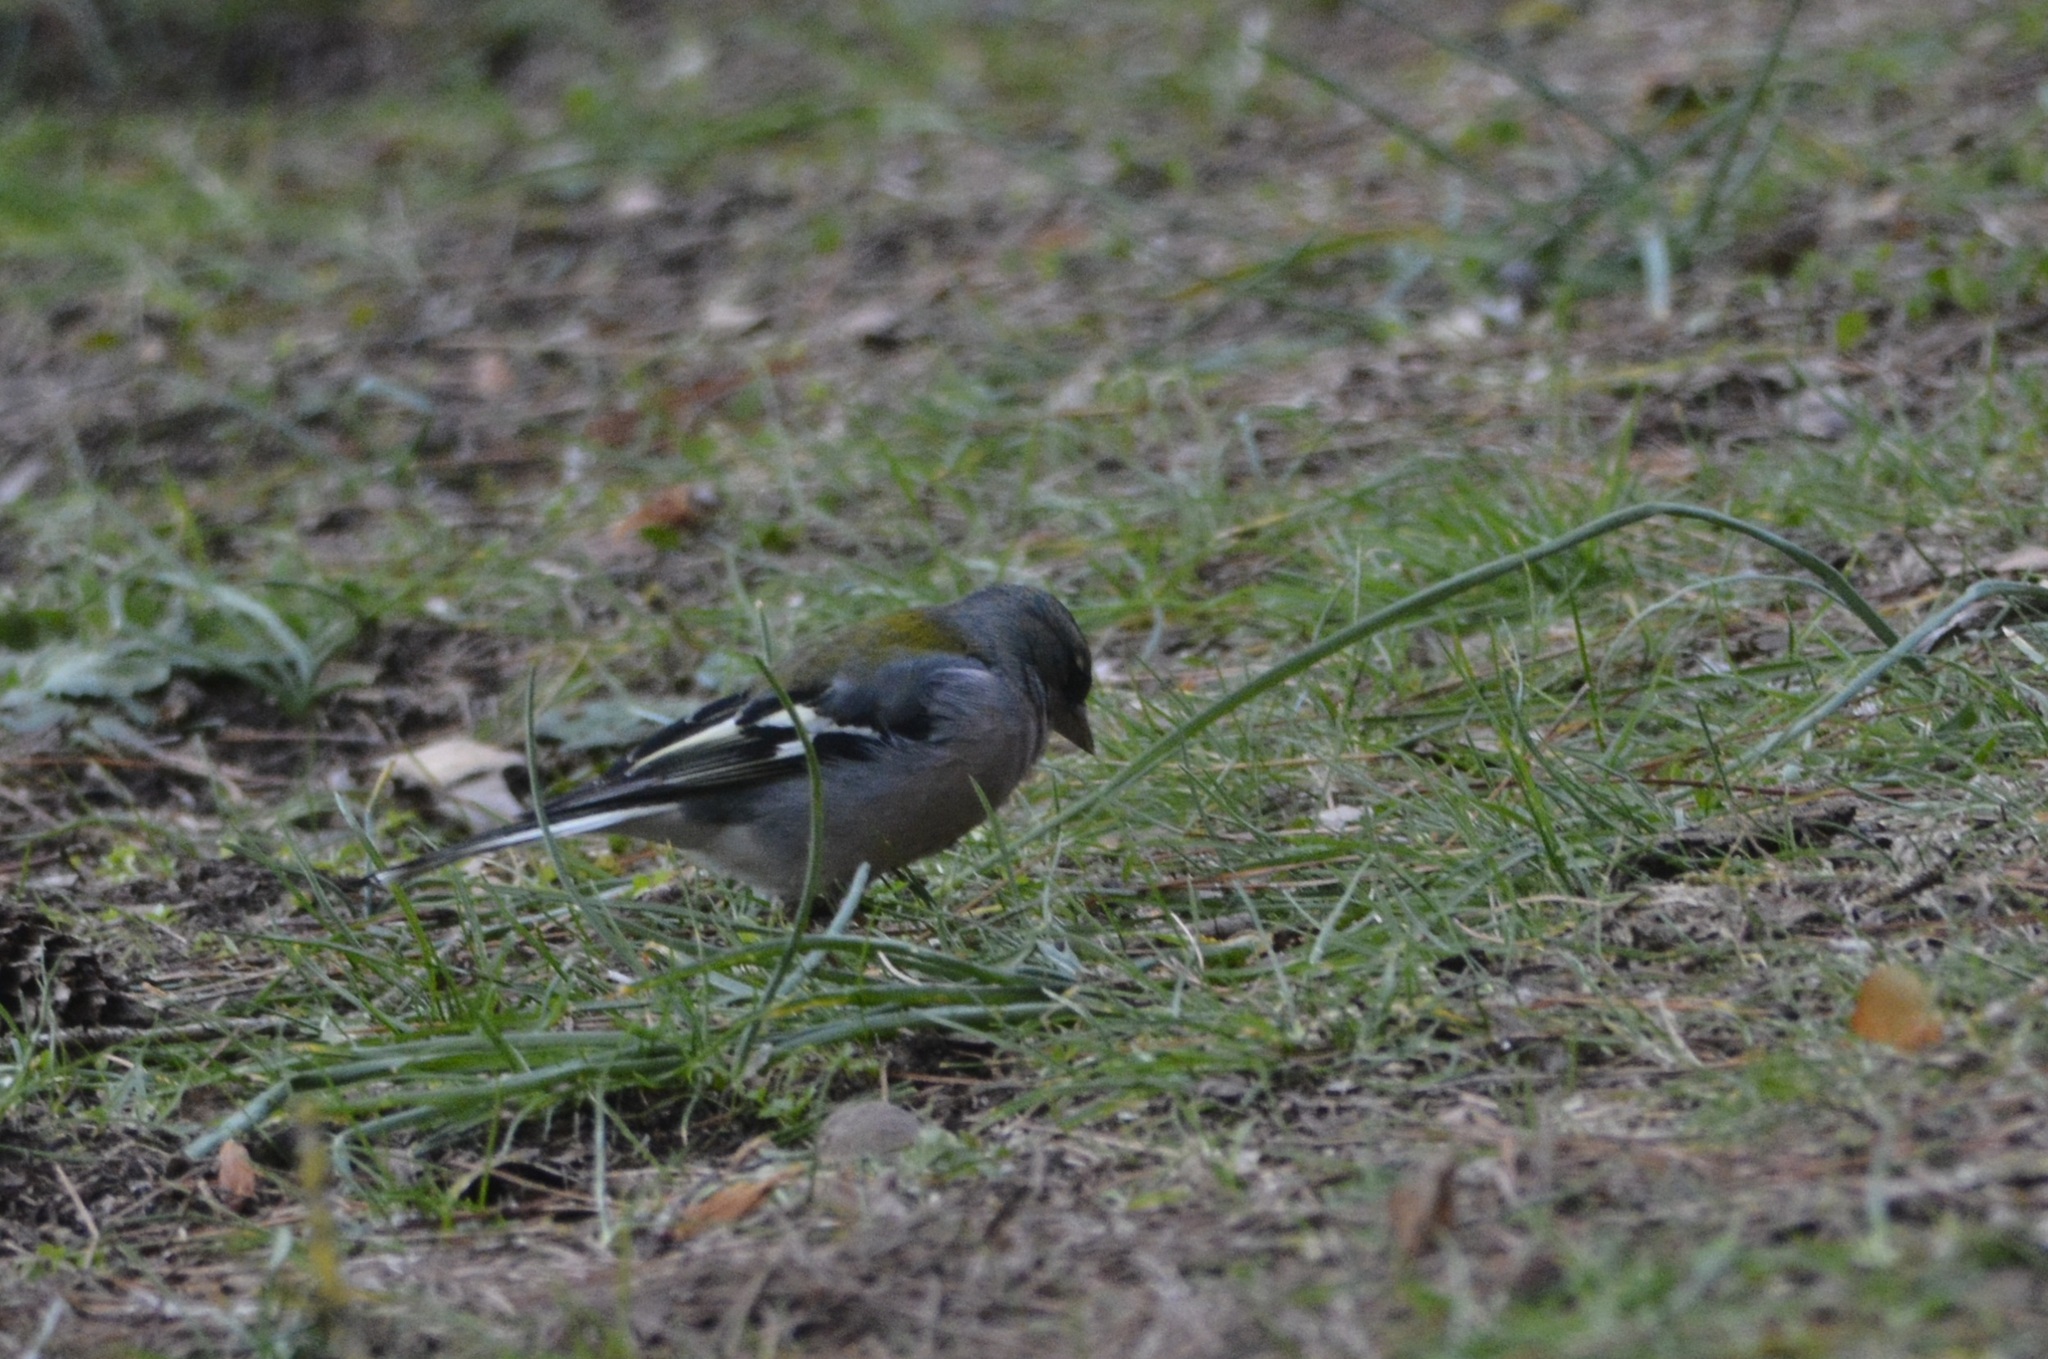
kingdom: Animalia
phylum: Chordata
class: Aves
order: Passeriformes
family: Fringillidae
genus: Fringilla
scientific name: Fringilla spodiogenys
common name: African chaffinch
